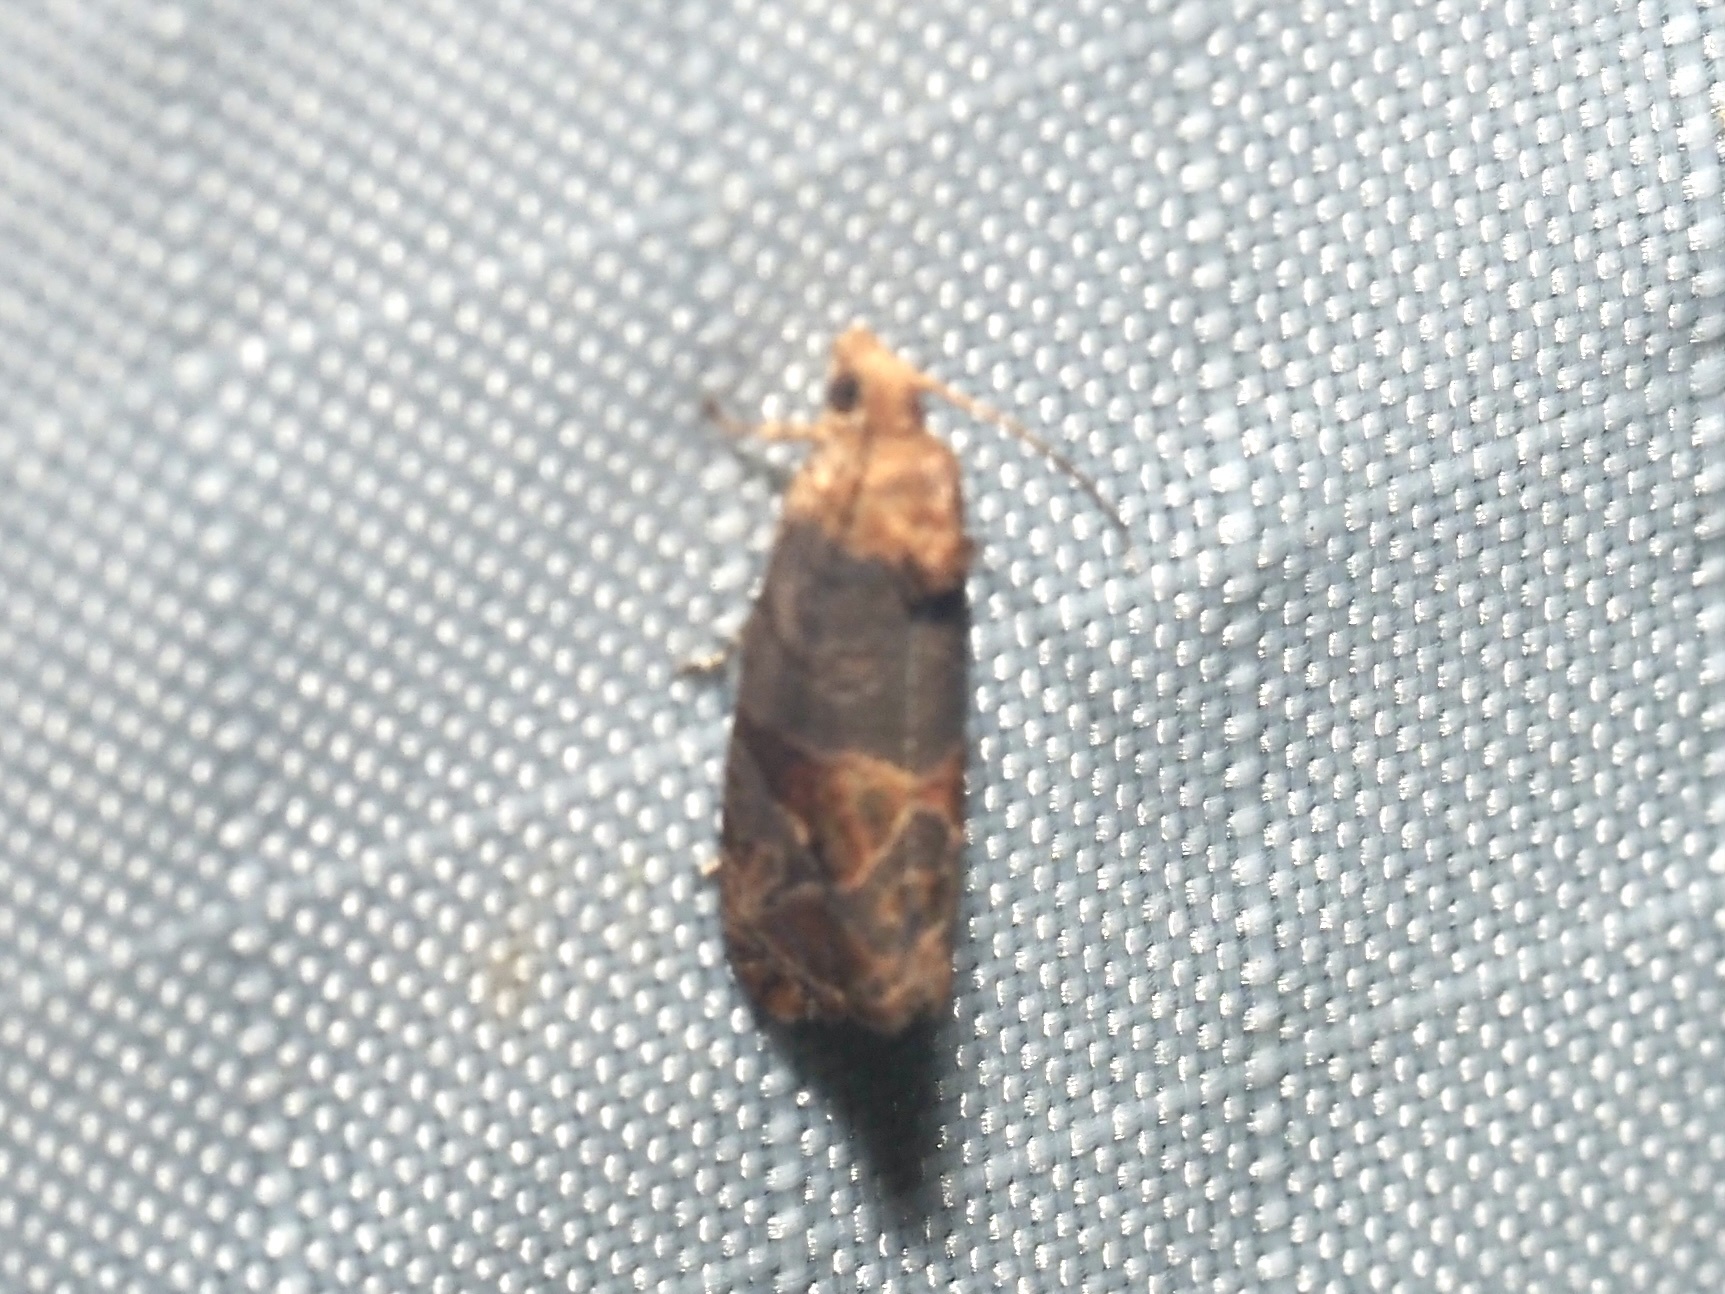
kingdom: Animalia
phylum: Arthropoda
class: Insecta
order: Lepidoptera
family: Tortricidae
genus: Paralobesia
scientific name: Paralobesia viteana
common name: Grape berry moth
